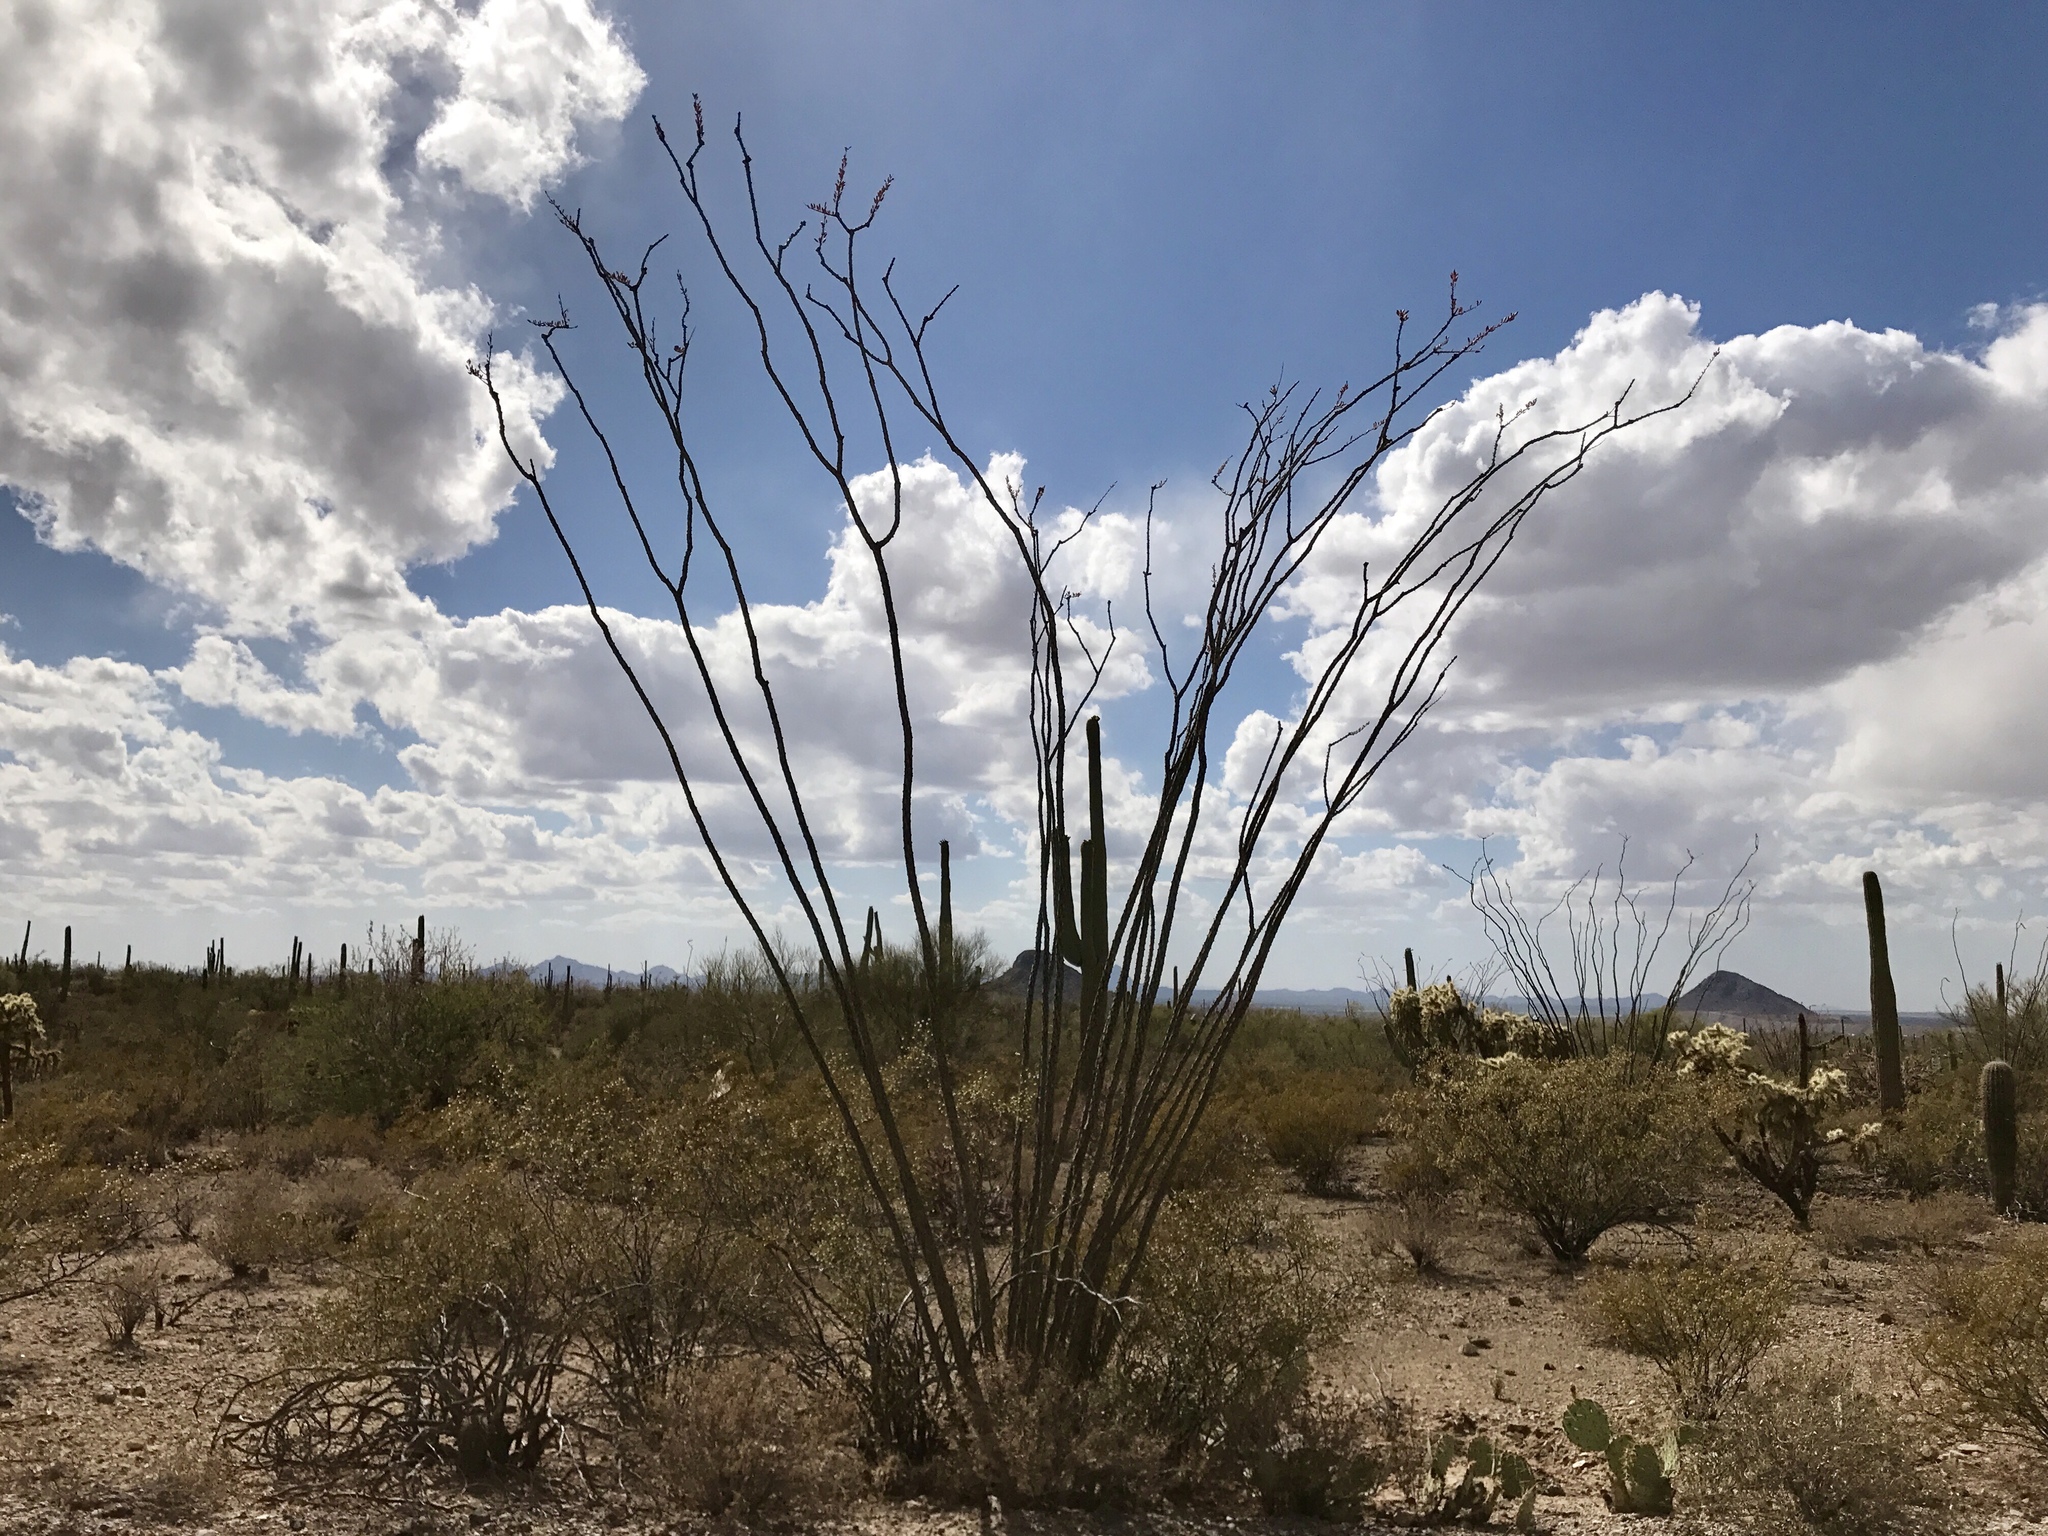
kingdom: Plantae
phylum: Tracheophyta
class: Magnoliopsida
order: Ericales
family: Fouquieriaceae
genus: Fouquieria
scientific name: Fouquieria splendens
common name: Vine-cactus
